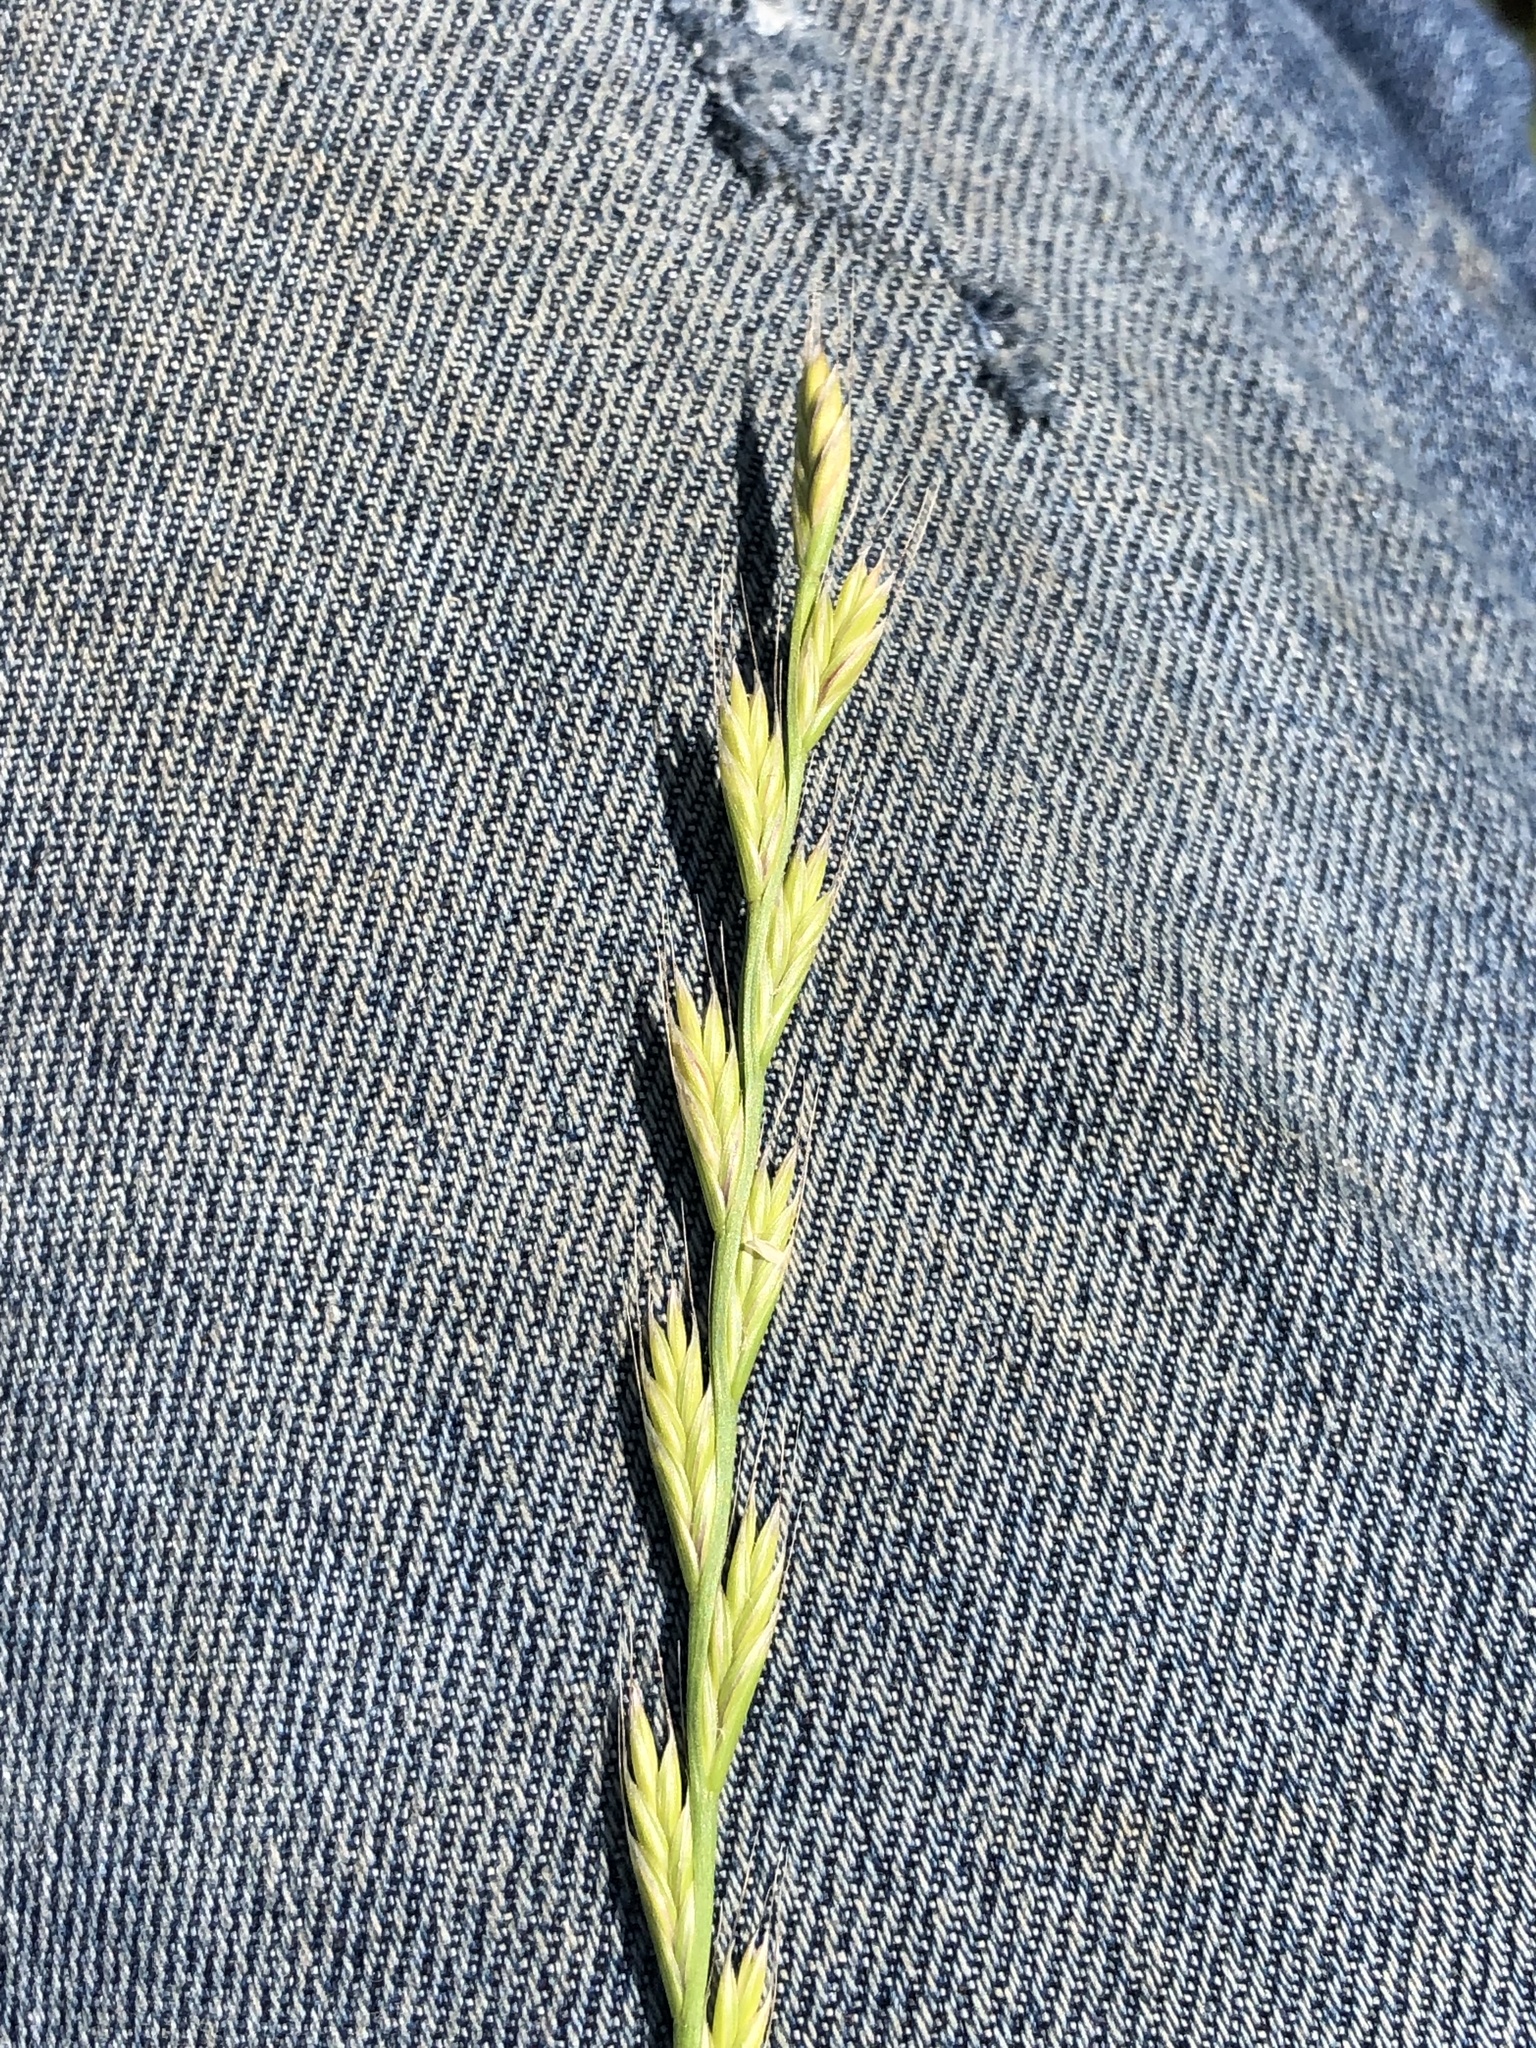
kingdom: Plantae
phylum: Tracheophyta
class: Liliopsida
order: Poales
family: Poaceae
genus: Lolium
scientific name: Lolium multiflorum
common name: Annual ryegrass
